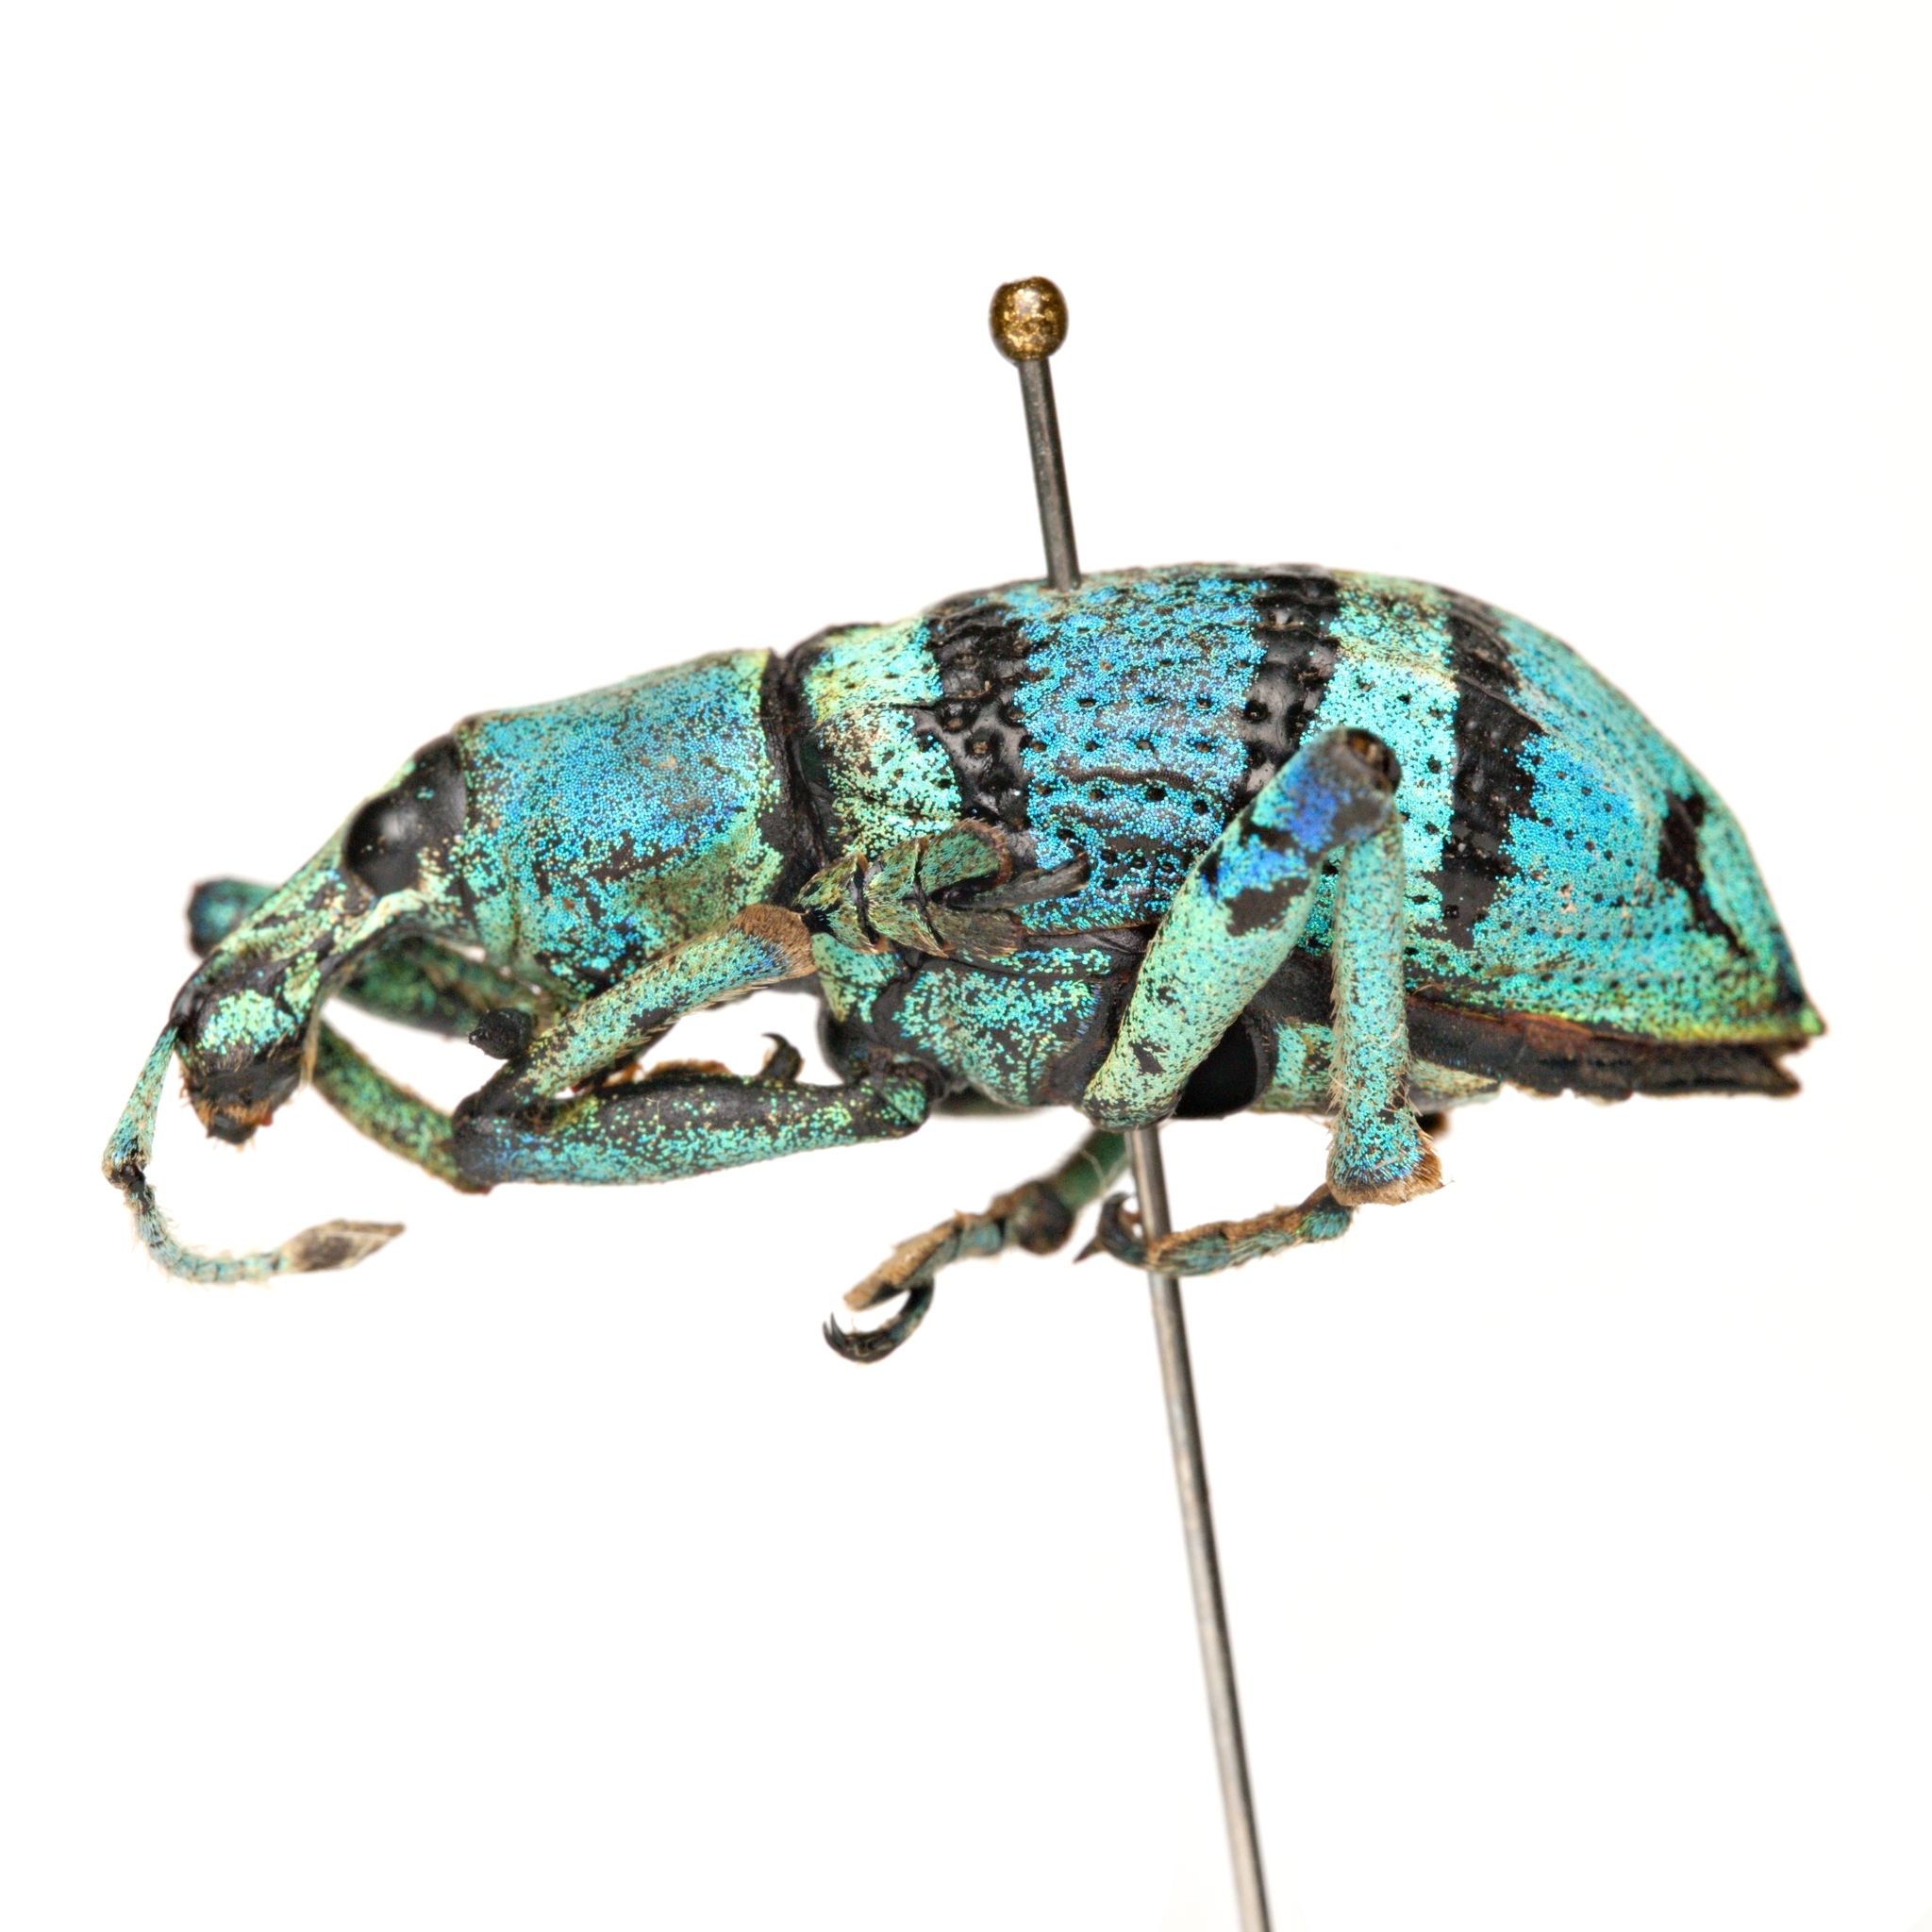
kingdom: Animalia
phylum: Arthropoda
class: Insecta
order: Coleoptera
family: Curculionidae
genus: Eupholus
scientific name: Eupholus schoenherri
